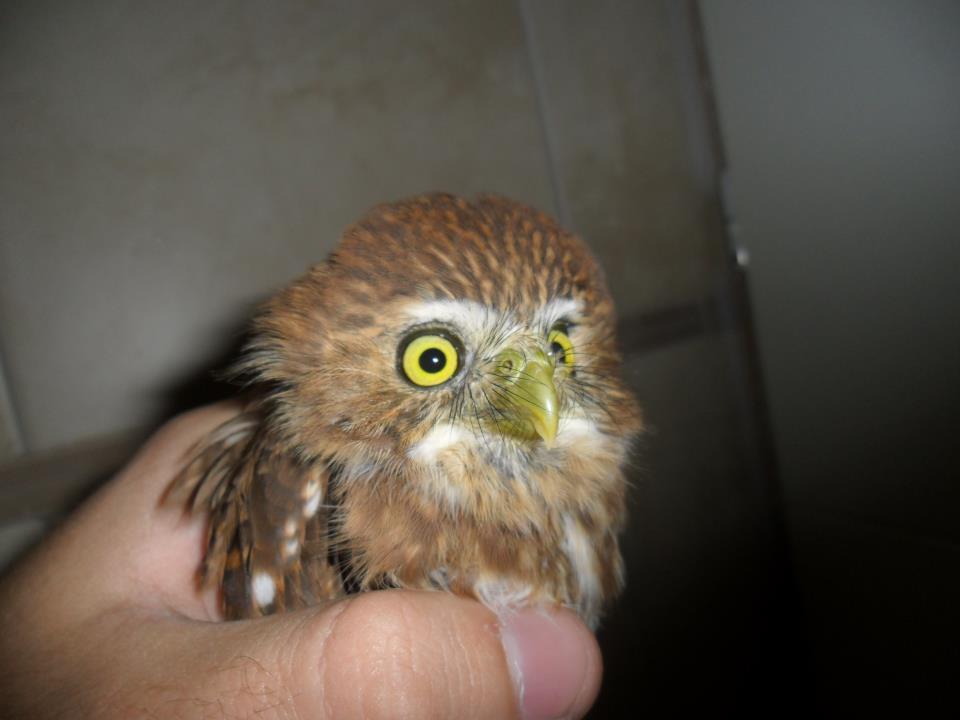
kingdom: Animalia
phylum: Chordata
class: Aves
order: Strigiformes
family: Strigidae
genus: Glaucidium
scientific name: Glaucidium brasilianum
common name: Ferruginous pygmy-owl
